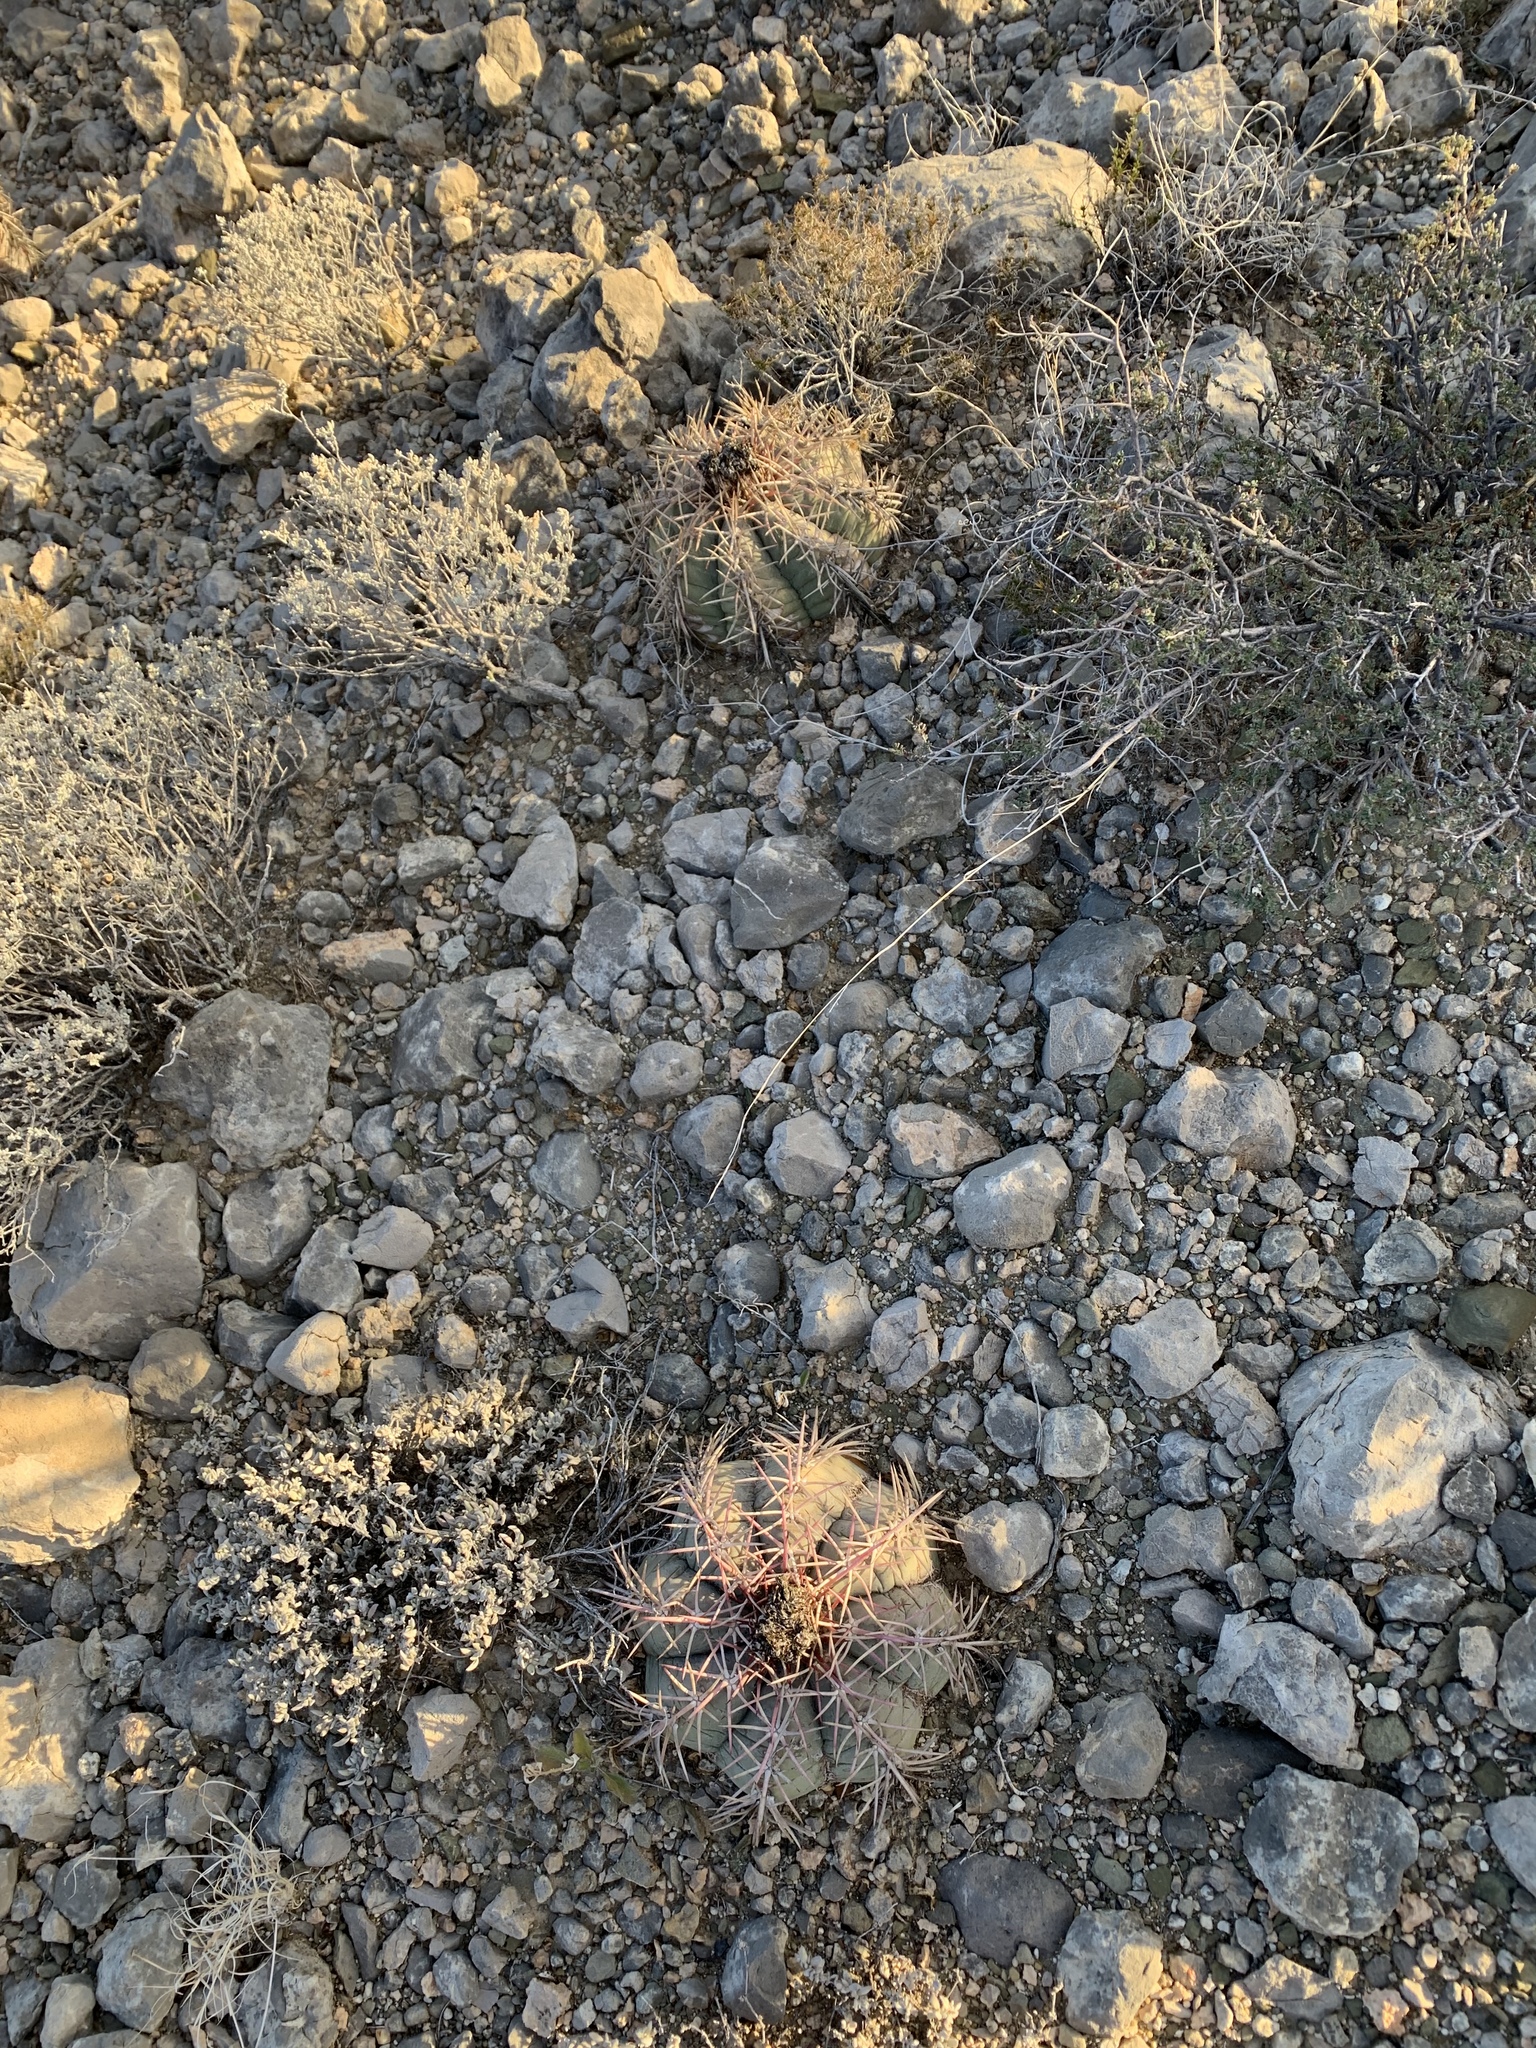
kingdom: Plantae
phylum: Tracheophyta
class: Magnoliopsida
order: Caryophyllales
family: Cactaceae
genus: Echinocactus
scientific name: Echinocactus horizonthalonius
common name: Devilshead
